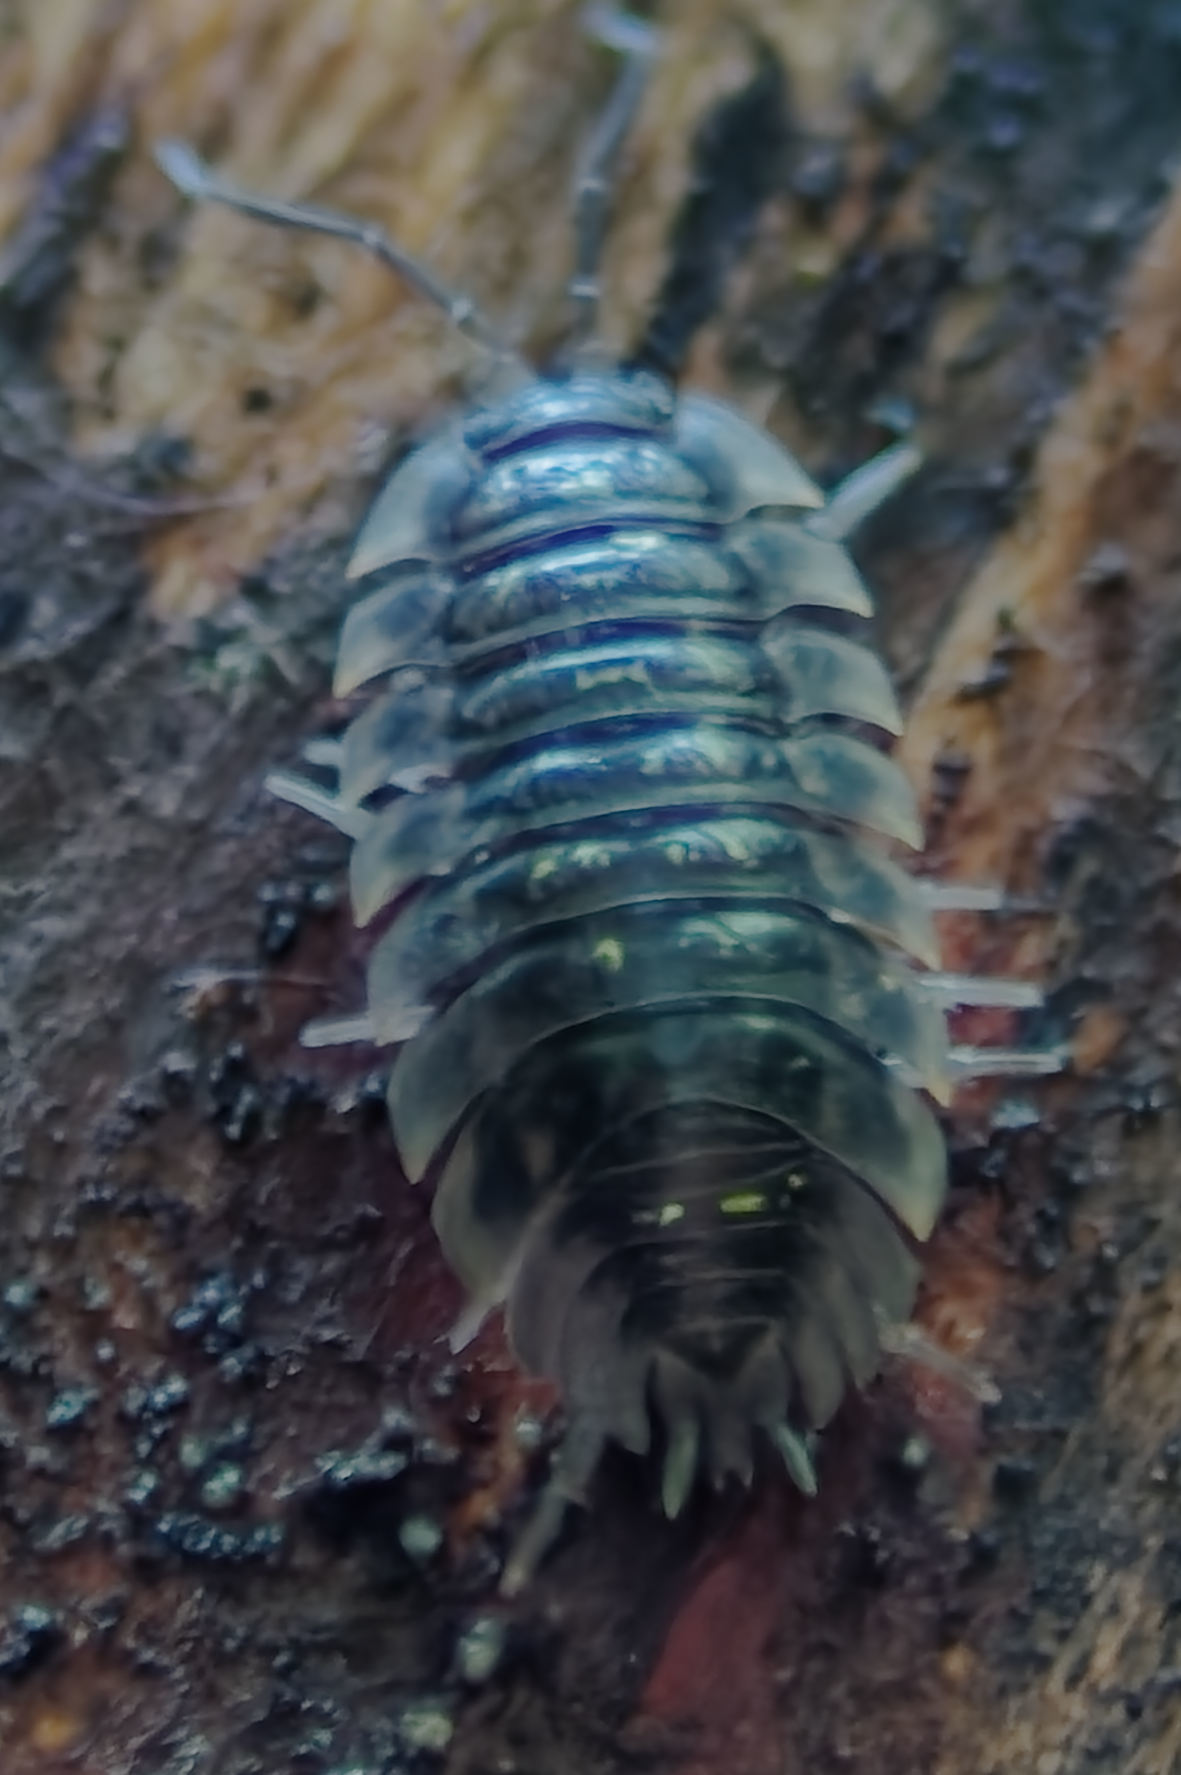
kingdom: Animalia
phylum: Arthropoda
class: Malacostraca
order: Isopoda
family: Oniscidae
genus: Oniscus
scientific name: Oniscus asellus
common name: Common shiny woodlouse
